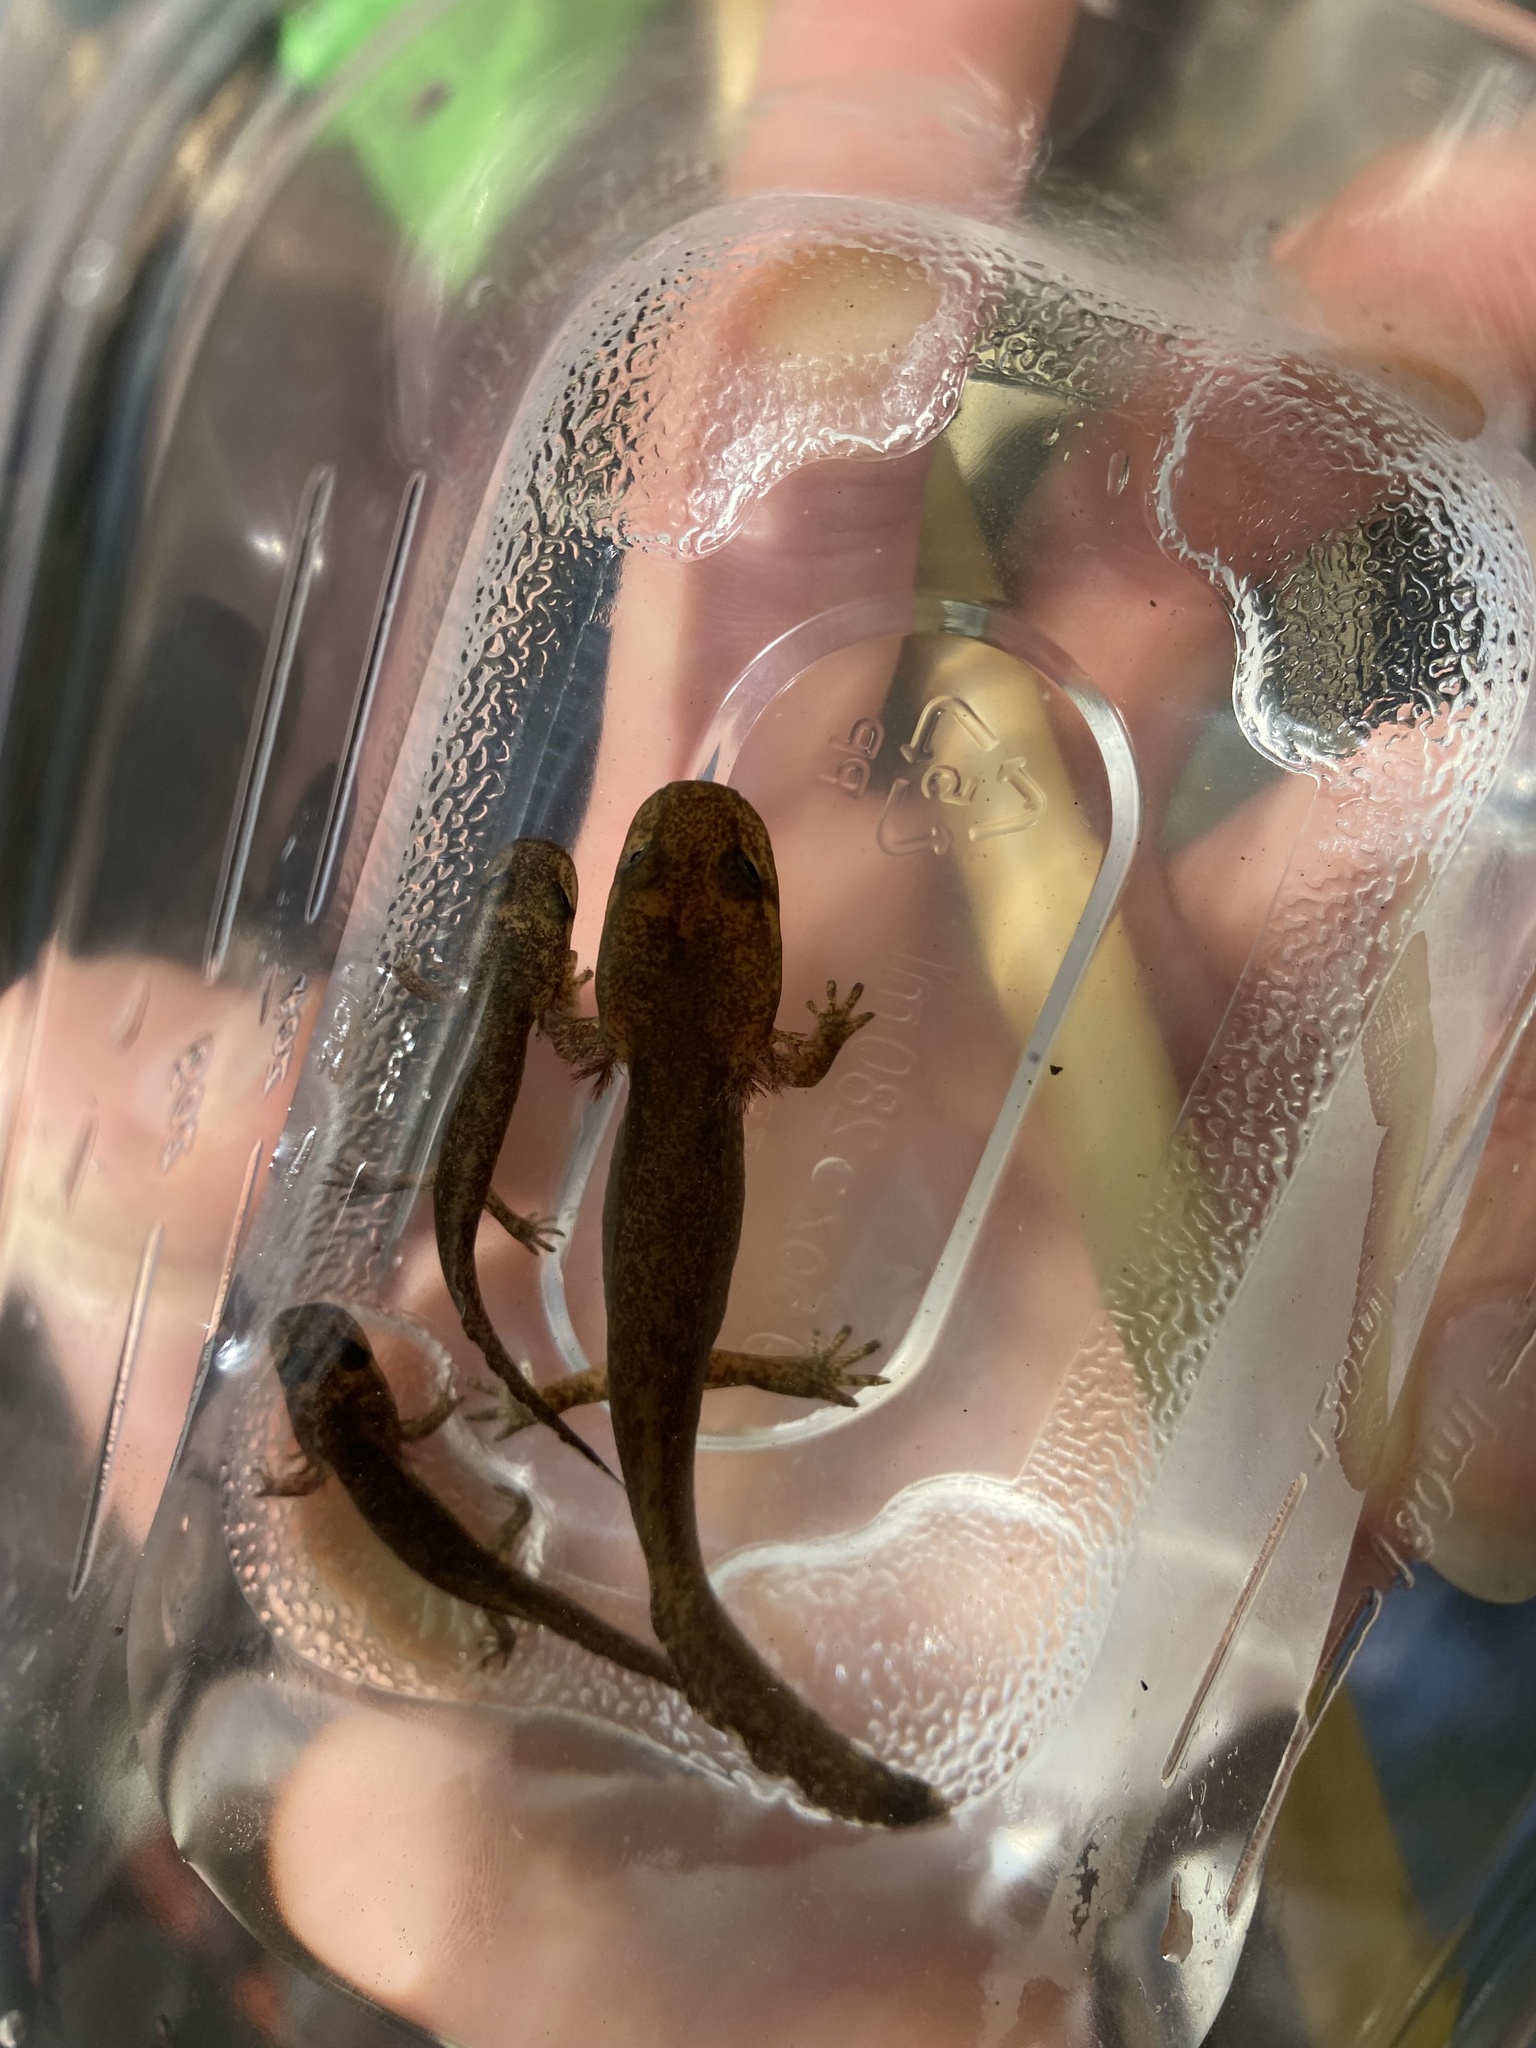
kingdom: Animalia
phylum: Chordata
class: Amphibia
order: Caudata
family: Ambystomatidae
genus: Dicamptodon
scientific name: Dicamptodon ensatus
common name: California giant salamander
